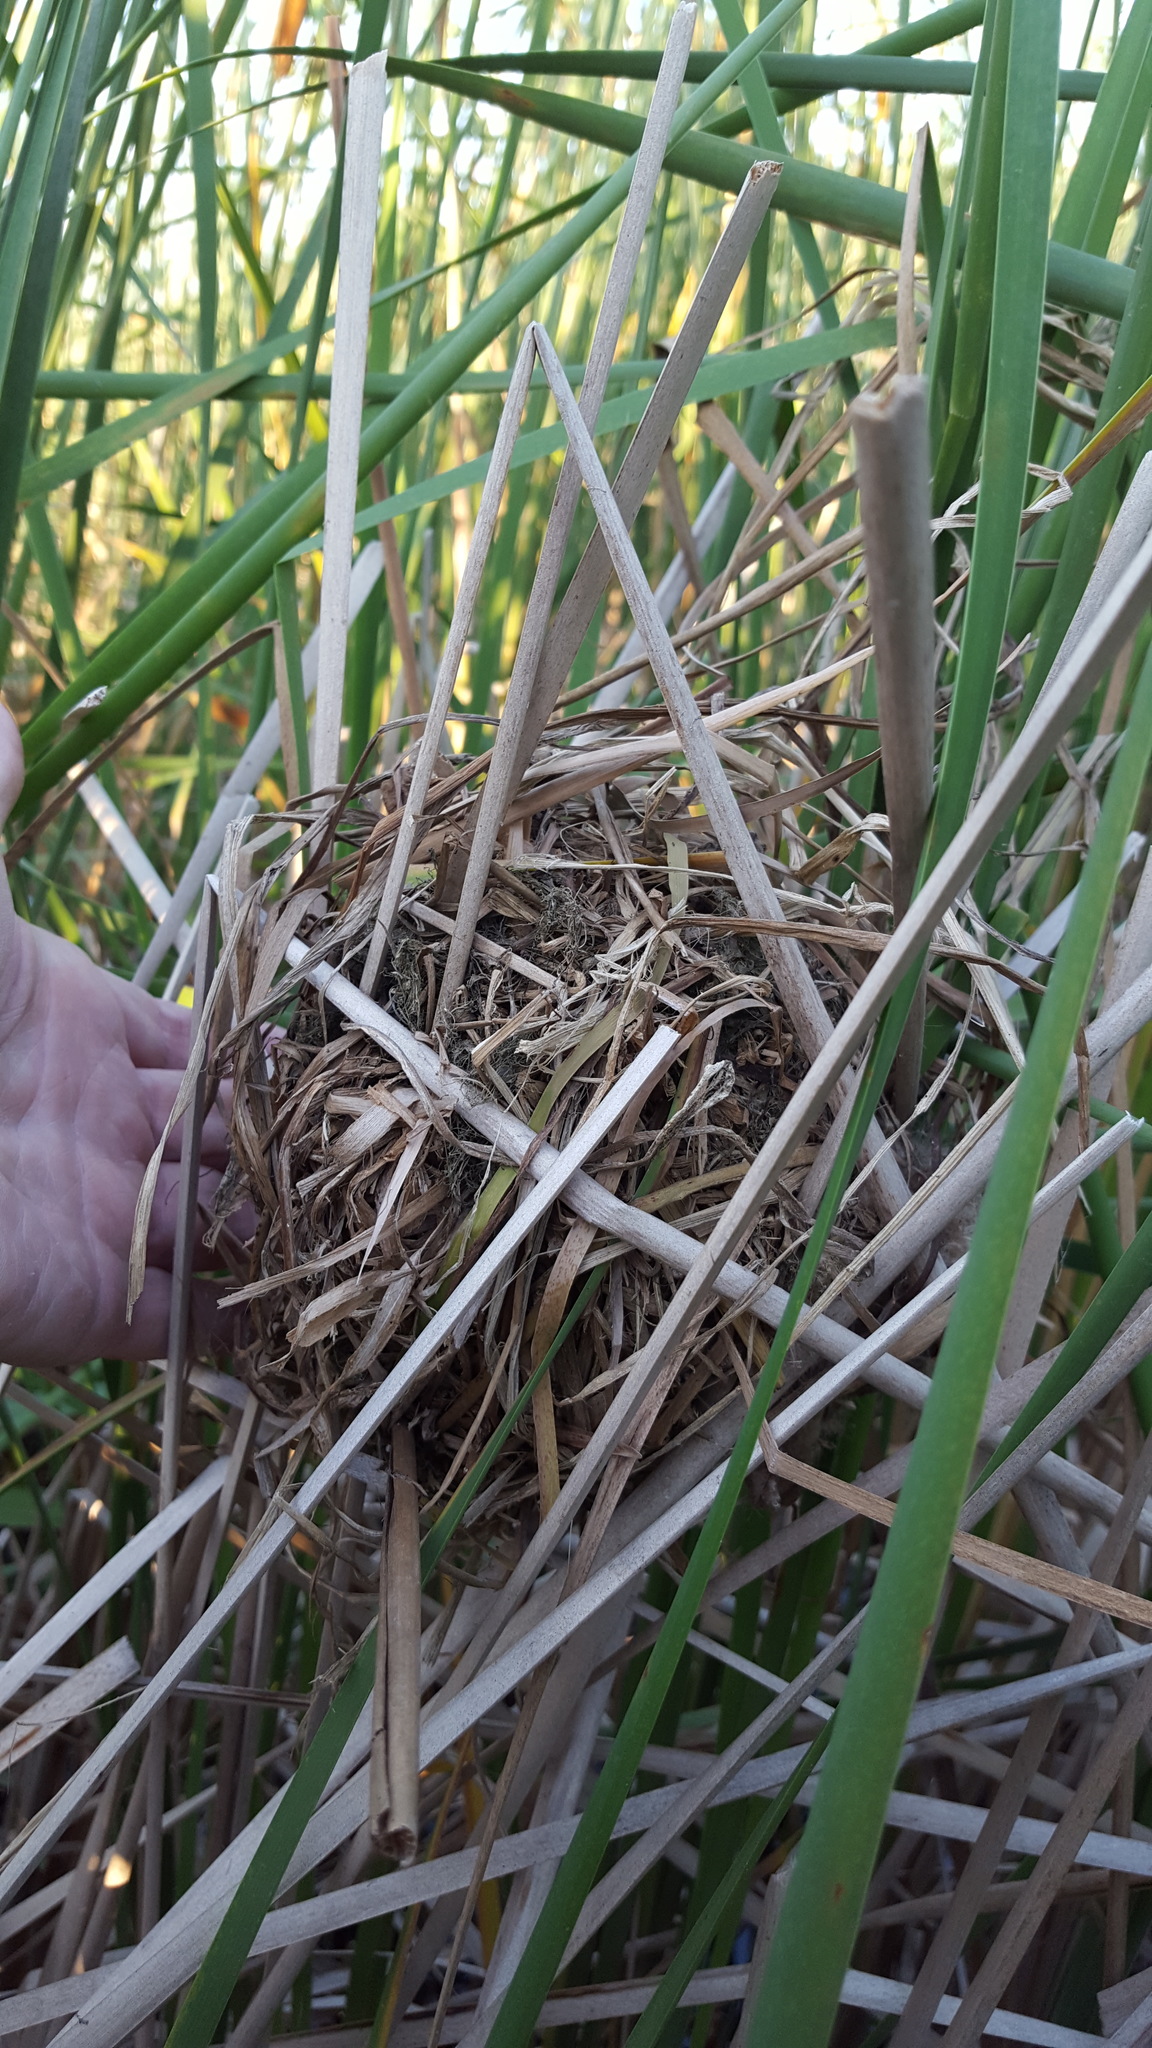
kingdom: Animalia
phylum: Chordata
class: Aves
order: Passeriformes
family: Troglodytidae
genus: Cistothorus
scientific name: Cistothorus palustris
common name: Marsh wren
